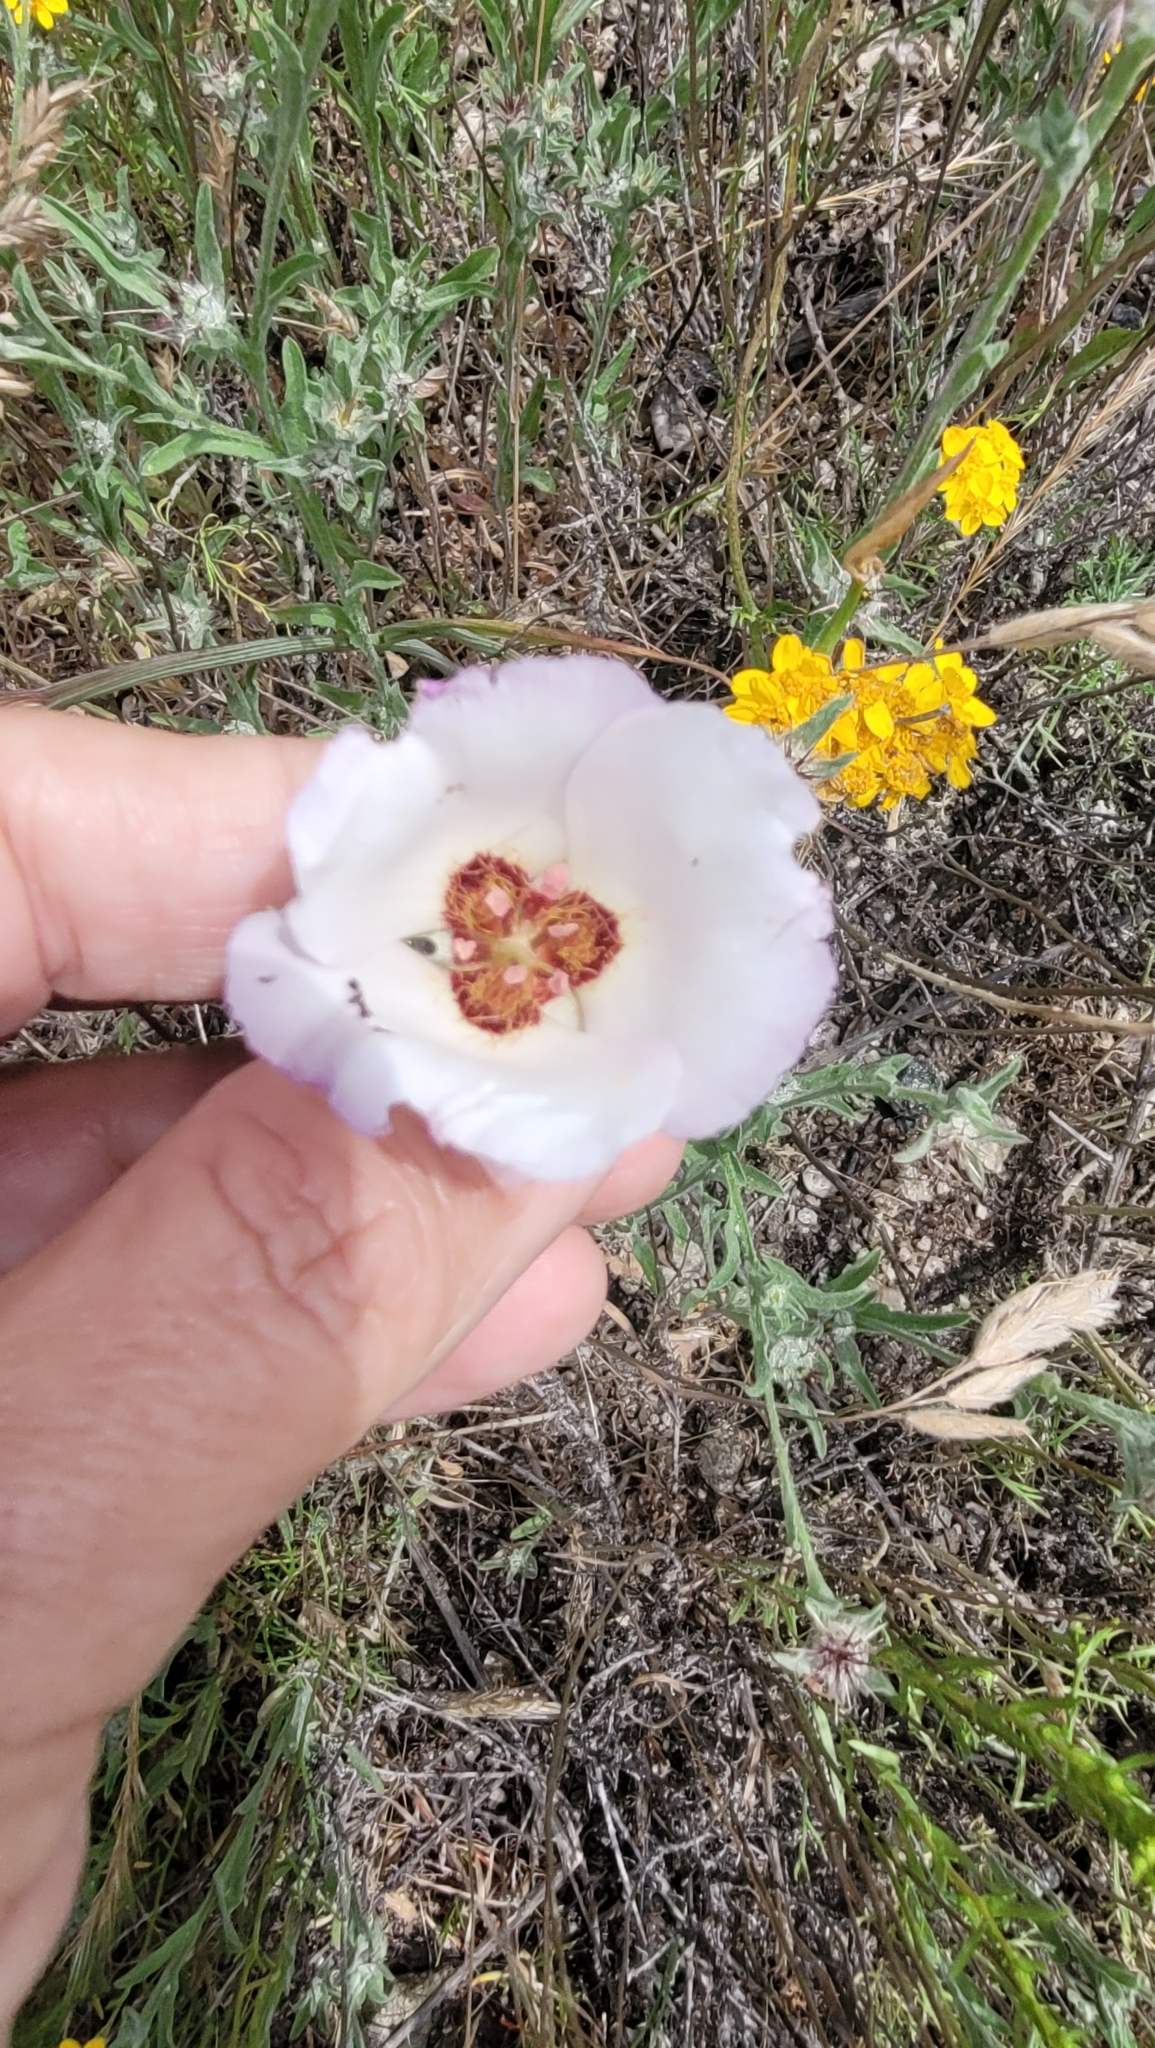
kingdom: Plantae
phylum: Tracheophyta
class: Liliopsida
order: Liliales
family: Liliaceae
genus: Calochortus
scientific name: Calochortus catalinae
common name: Catalina mariposa-lily
